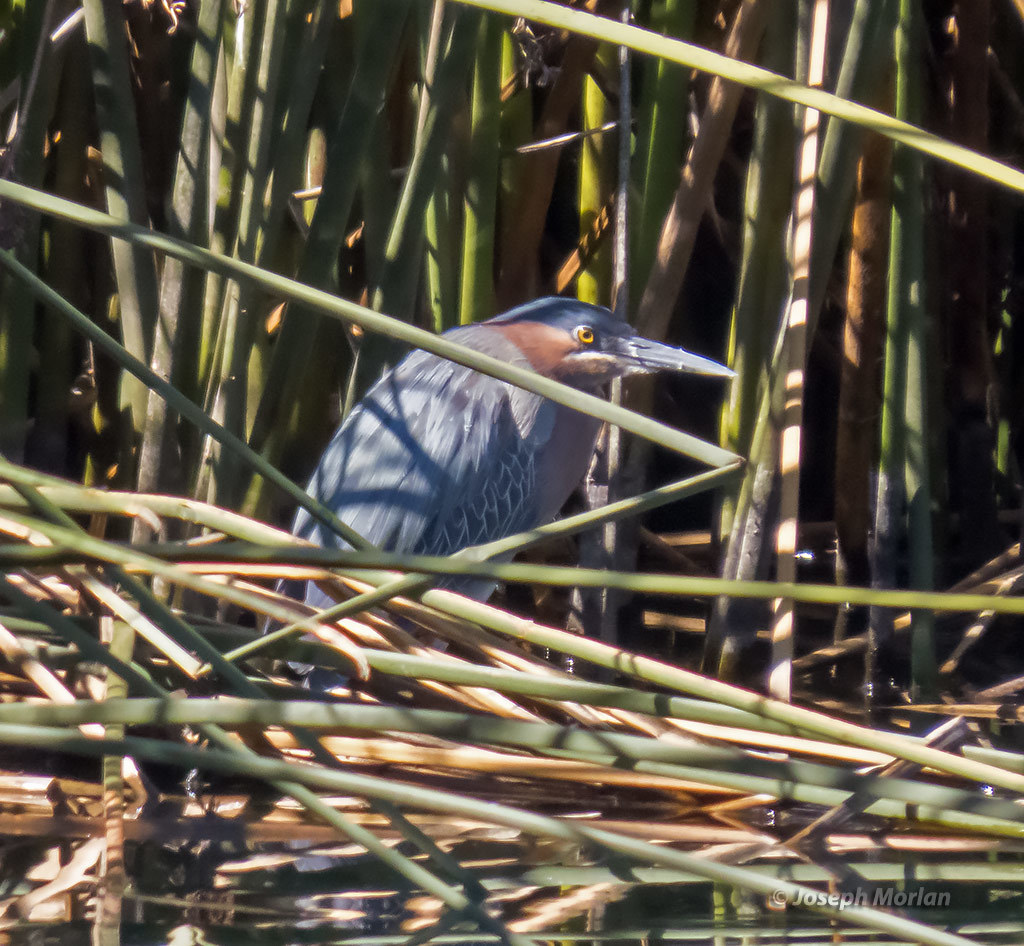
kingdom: Animalia
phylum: Chordata
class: Aves
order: Pelecaniformes
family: Ardeidae
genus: Butorides
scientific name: Butorides virescens
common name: Green heron
